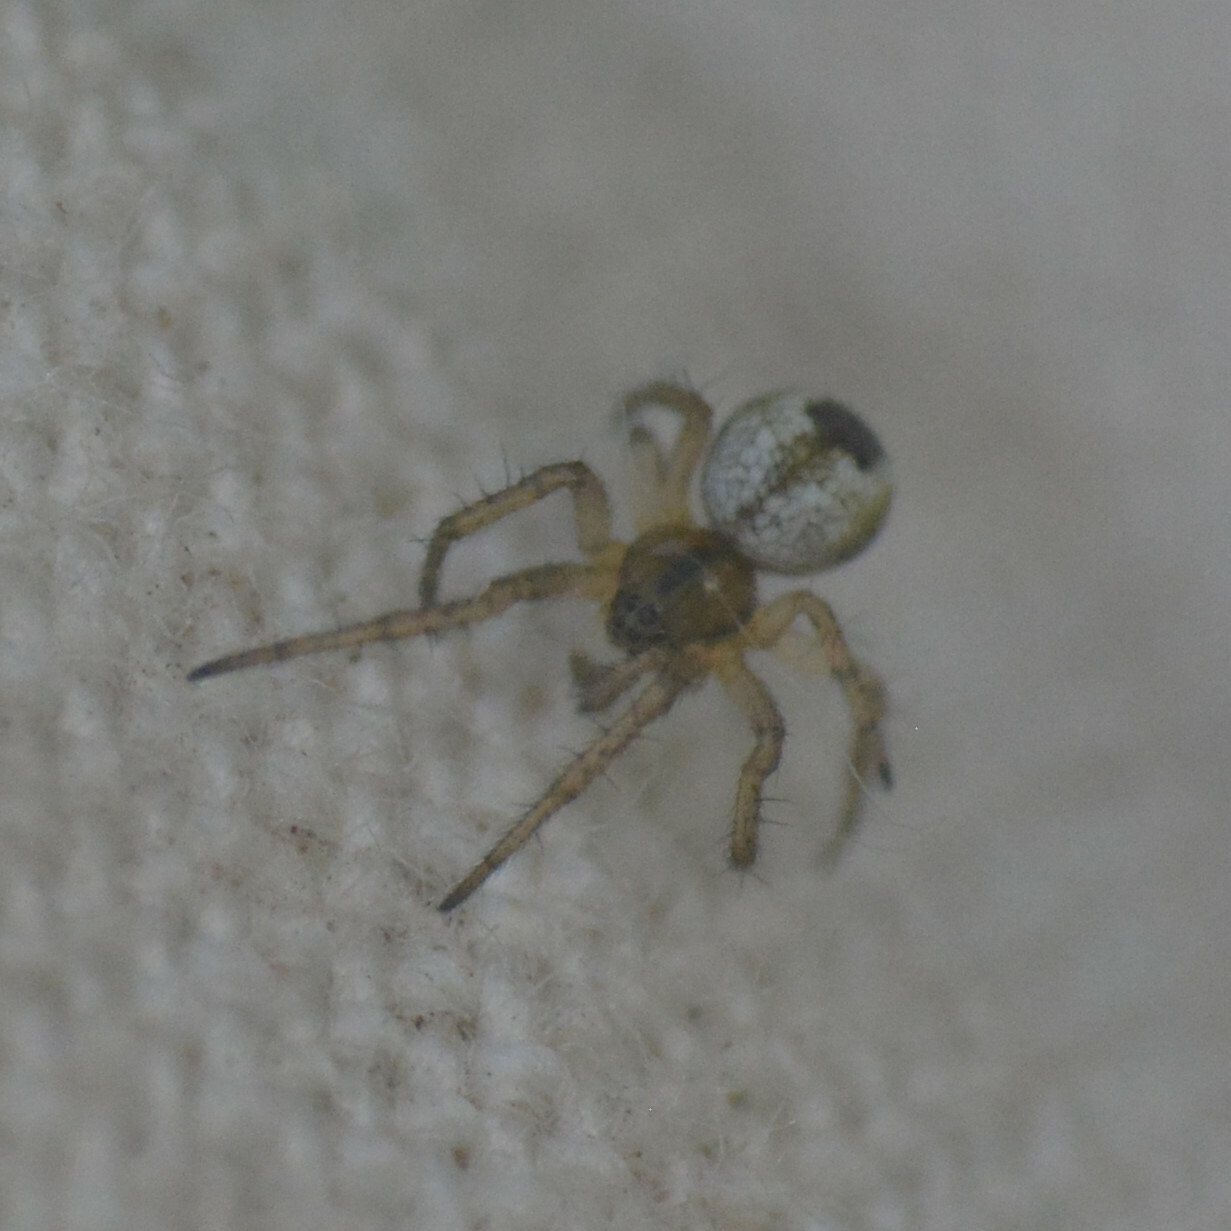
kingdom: Animalia
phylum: Arthropoda
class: Arachnida
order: Araneae
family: Araneidae
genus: Mangora
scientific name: Mangora acalypha
